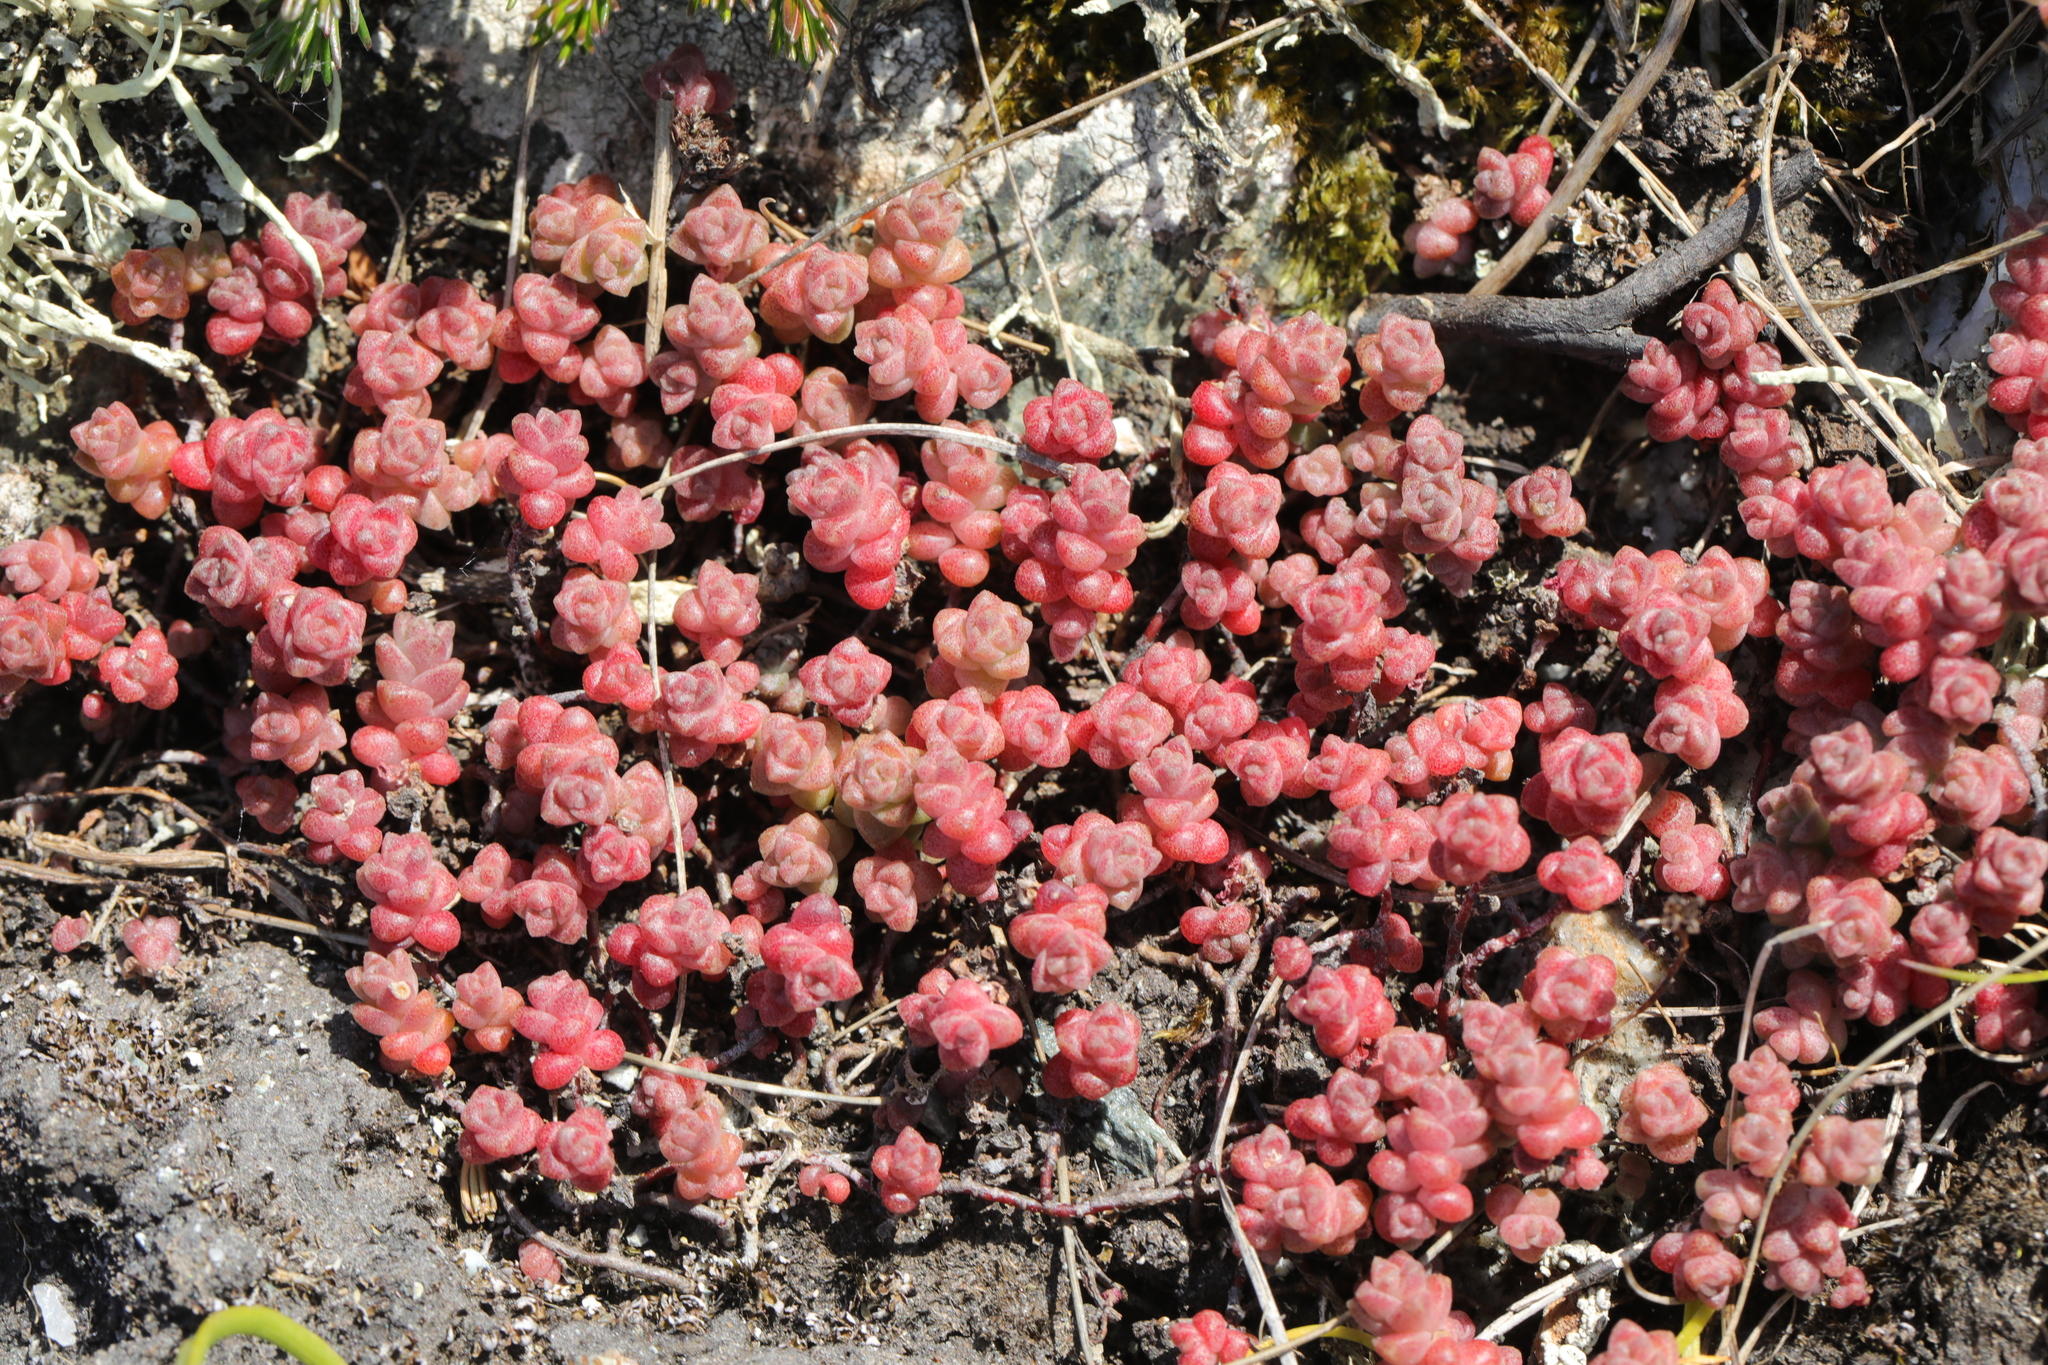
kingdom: Plantae
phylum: Tracheophyta
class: Magnoliopsida
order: Saxifragales
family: Crassulaceae
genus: Sedum
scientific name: Sedum anglicum
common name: English stonecrop
